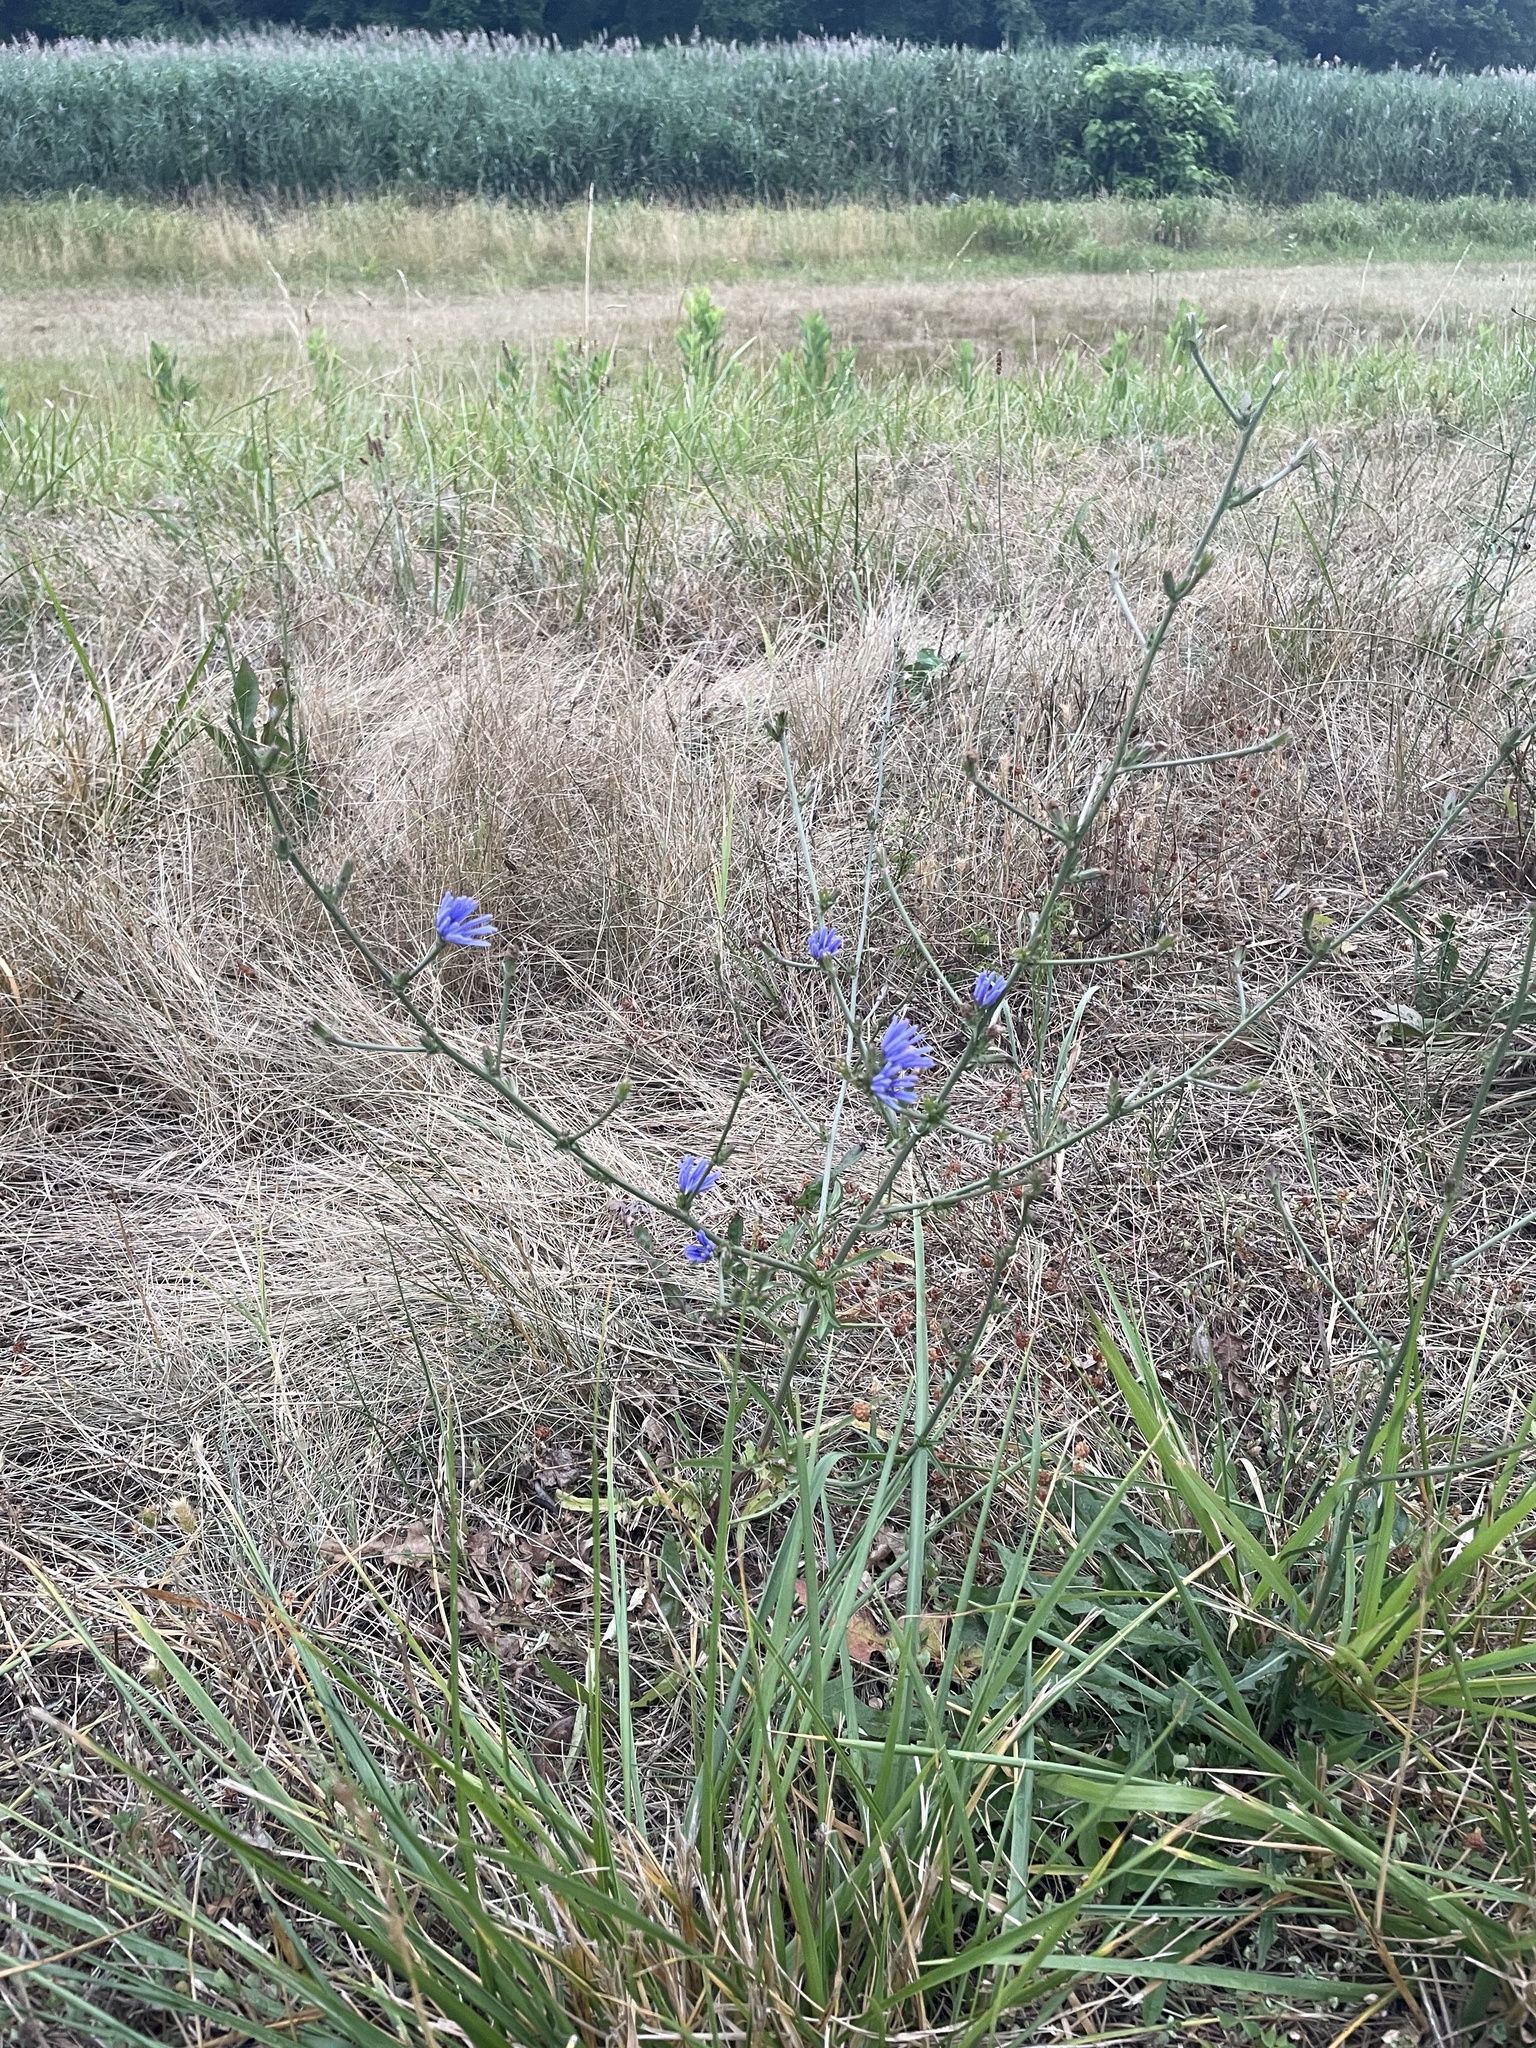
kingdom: Plantae
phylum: Tracheophyta
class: Magnoliopsida
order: Asterales
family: Asteraceae
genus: Cichorium
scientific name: Cichorium intybus
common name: Chicory
